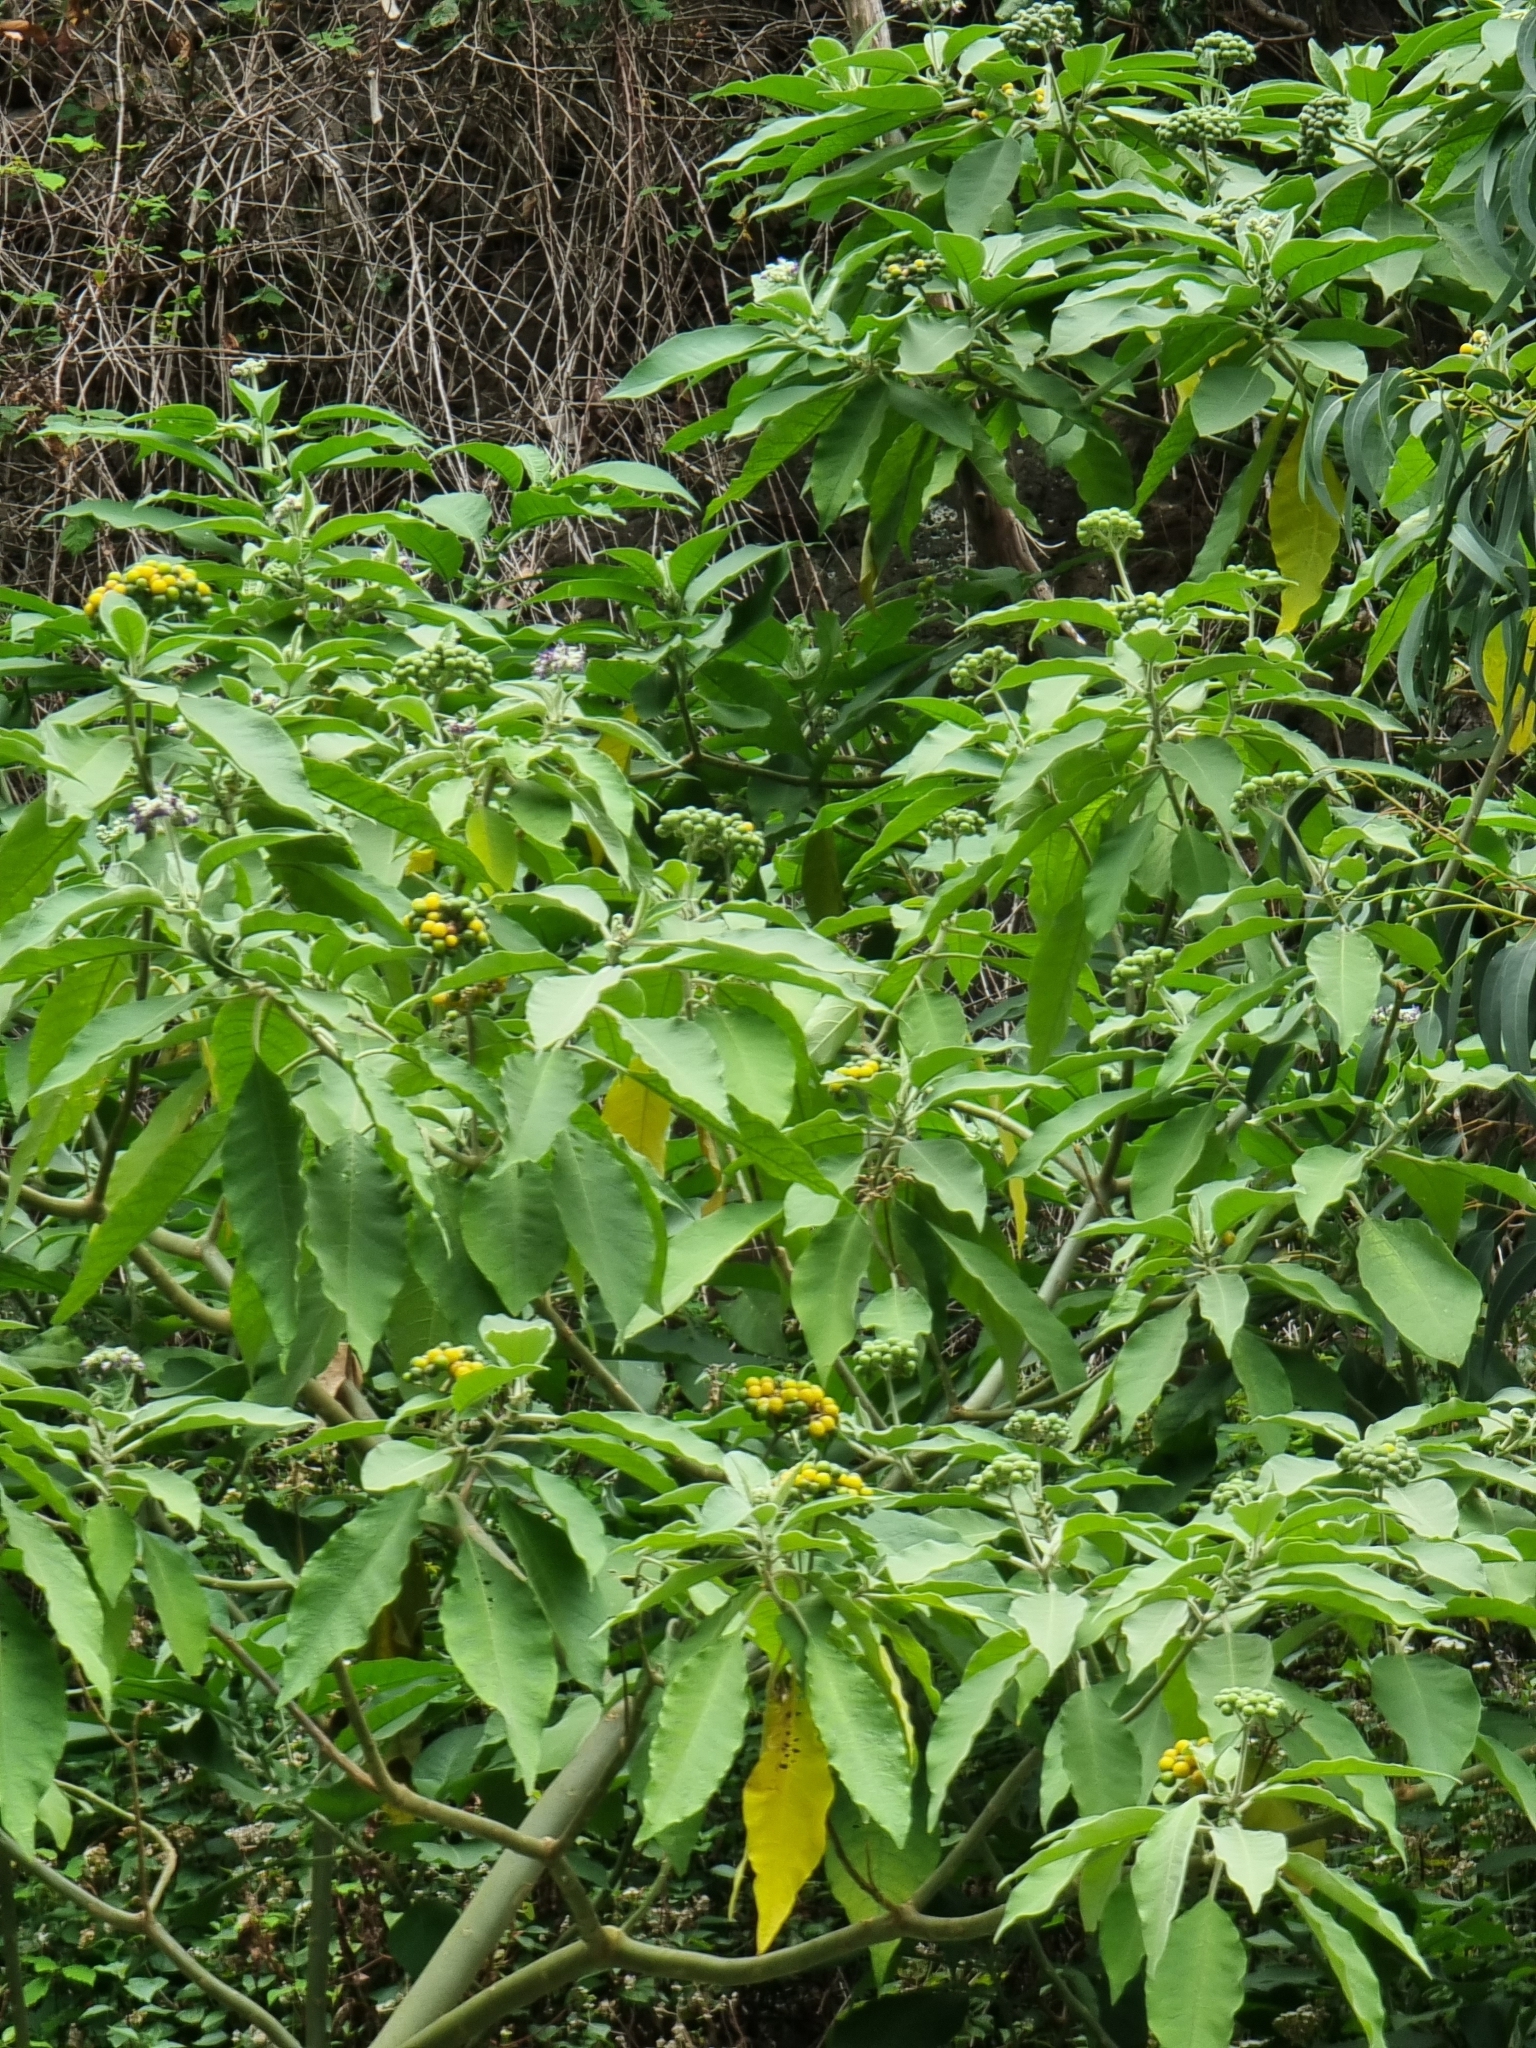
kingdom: Plantae
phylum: Tracheophyta
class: Magnoliopsida
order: Solanales
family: Solanaceae
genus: Solanum
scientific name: Solanum mauritianum
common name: Earleaf nightshade
